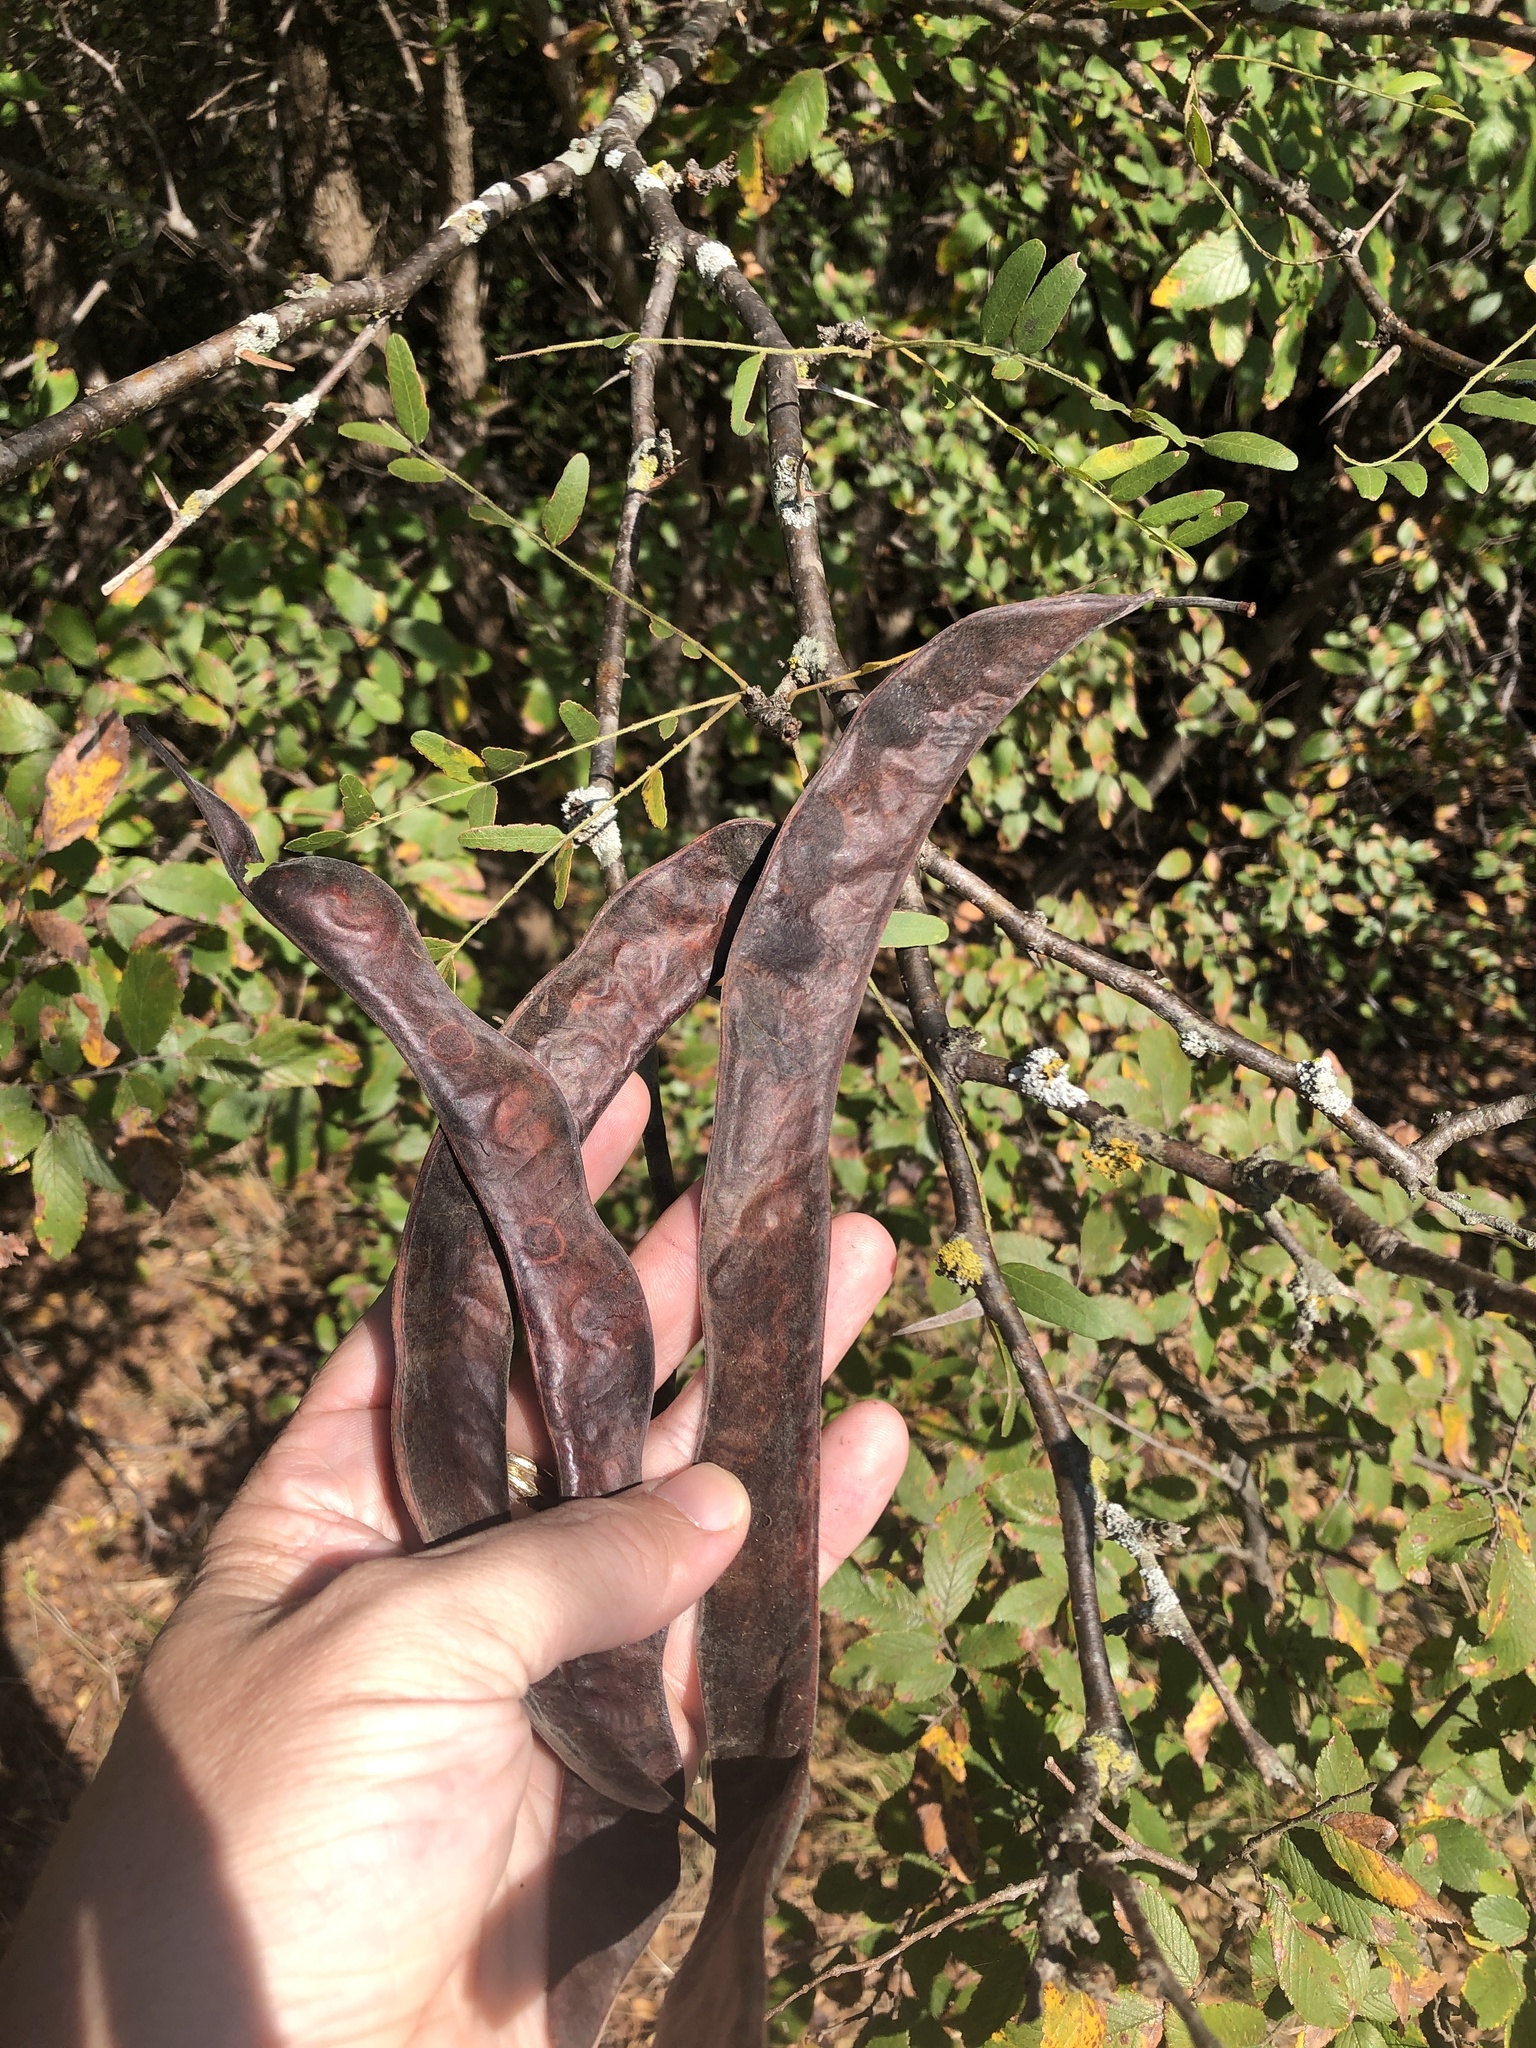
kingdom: Plantae
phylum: Tracheophyta
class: Magnoliopsida
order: Fabales
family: Fabaceae
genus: Gleditsia
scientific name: Gleditsia triacanthos
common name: Common honeylocust
